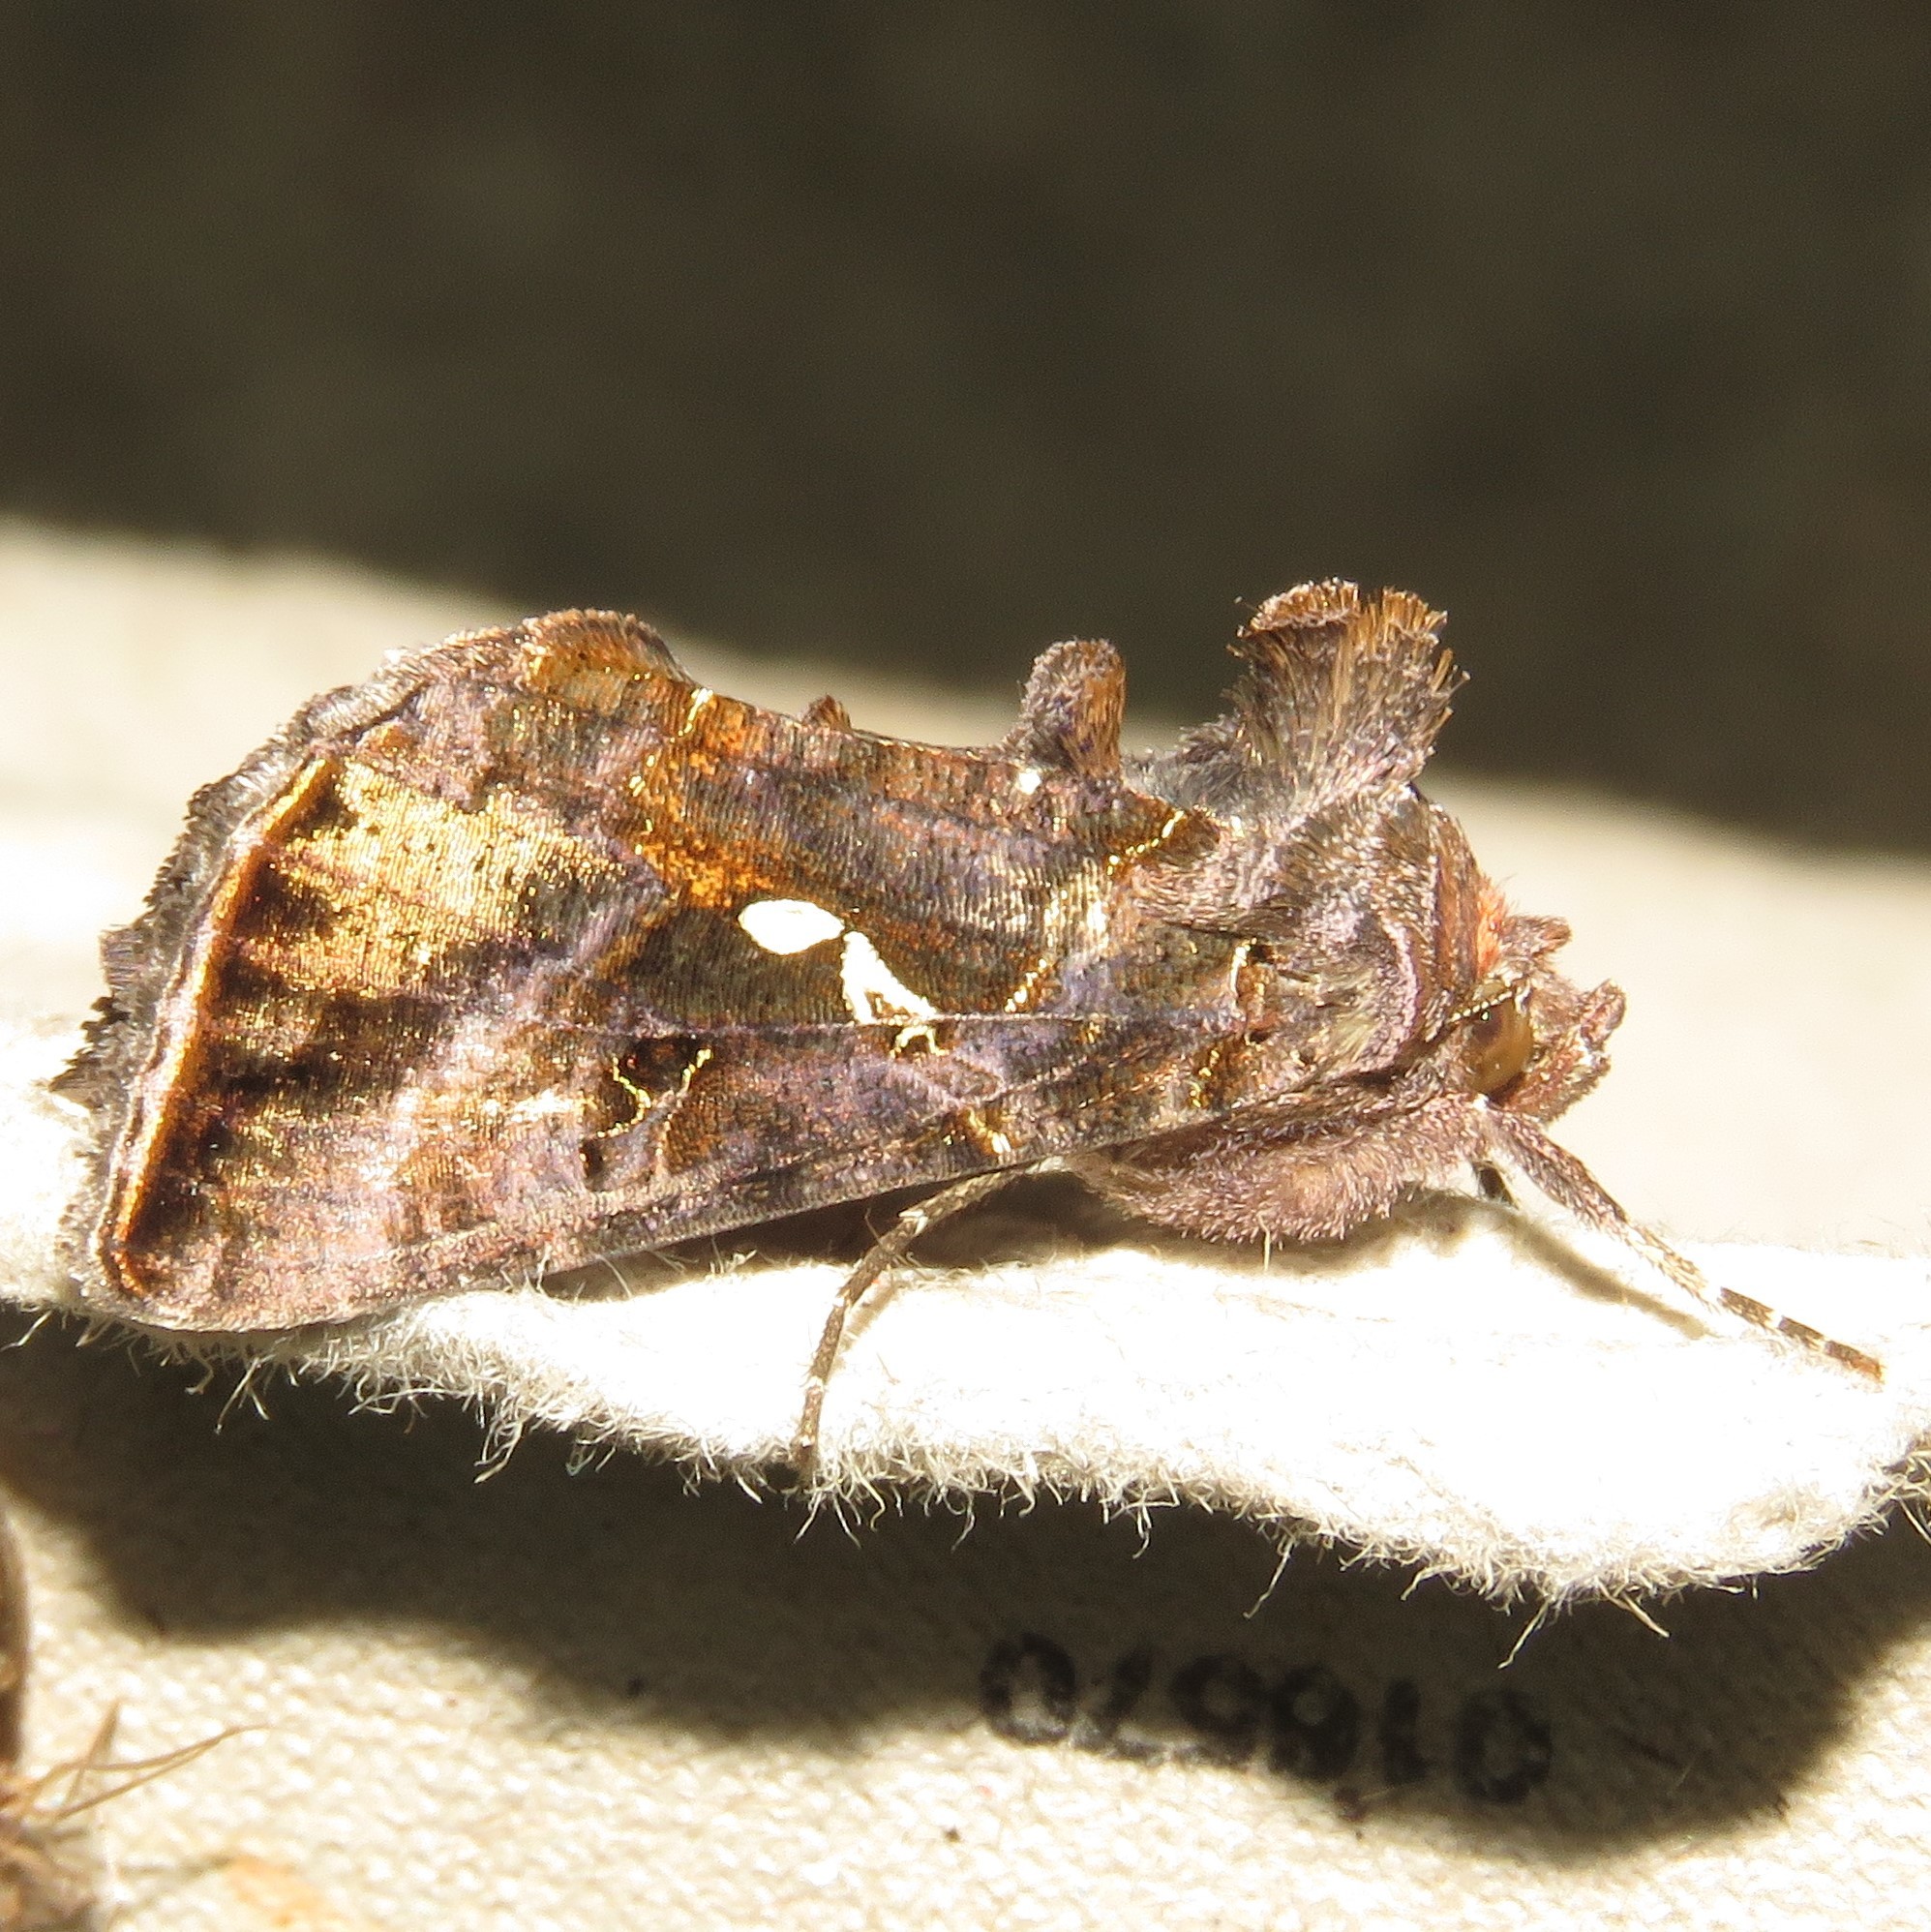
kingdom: Animalia
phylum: Arthropoda
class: Insecta
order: Lepidoptera
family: Noctuidae
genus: Autographa
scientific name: Autographa precationis
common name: Common looper moth
